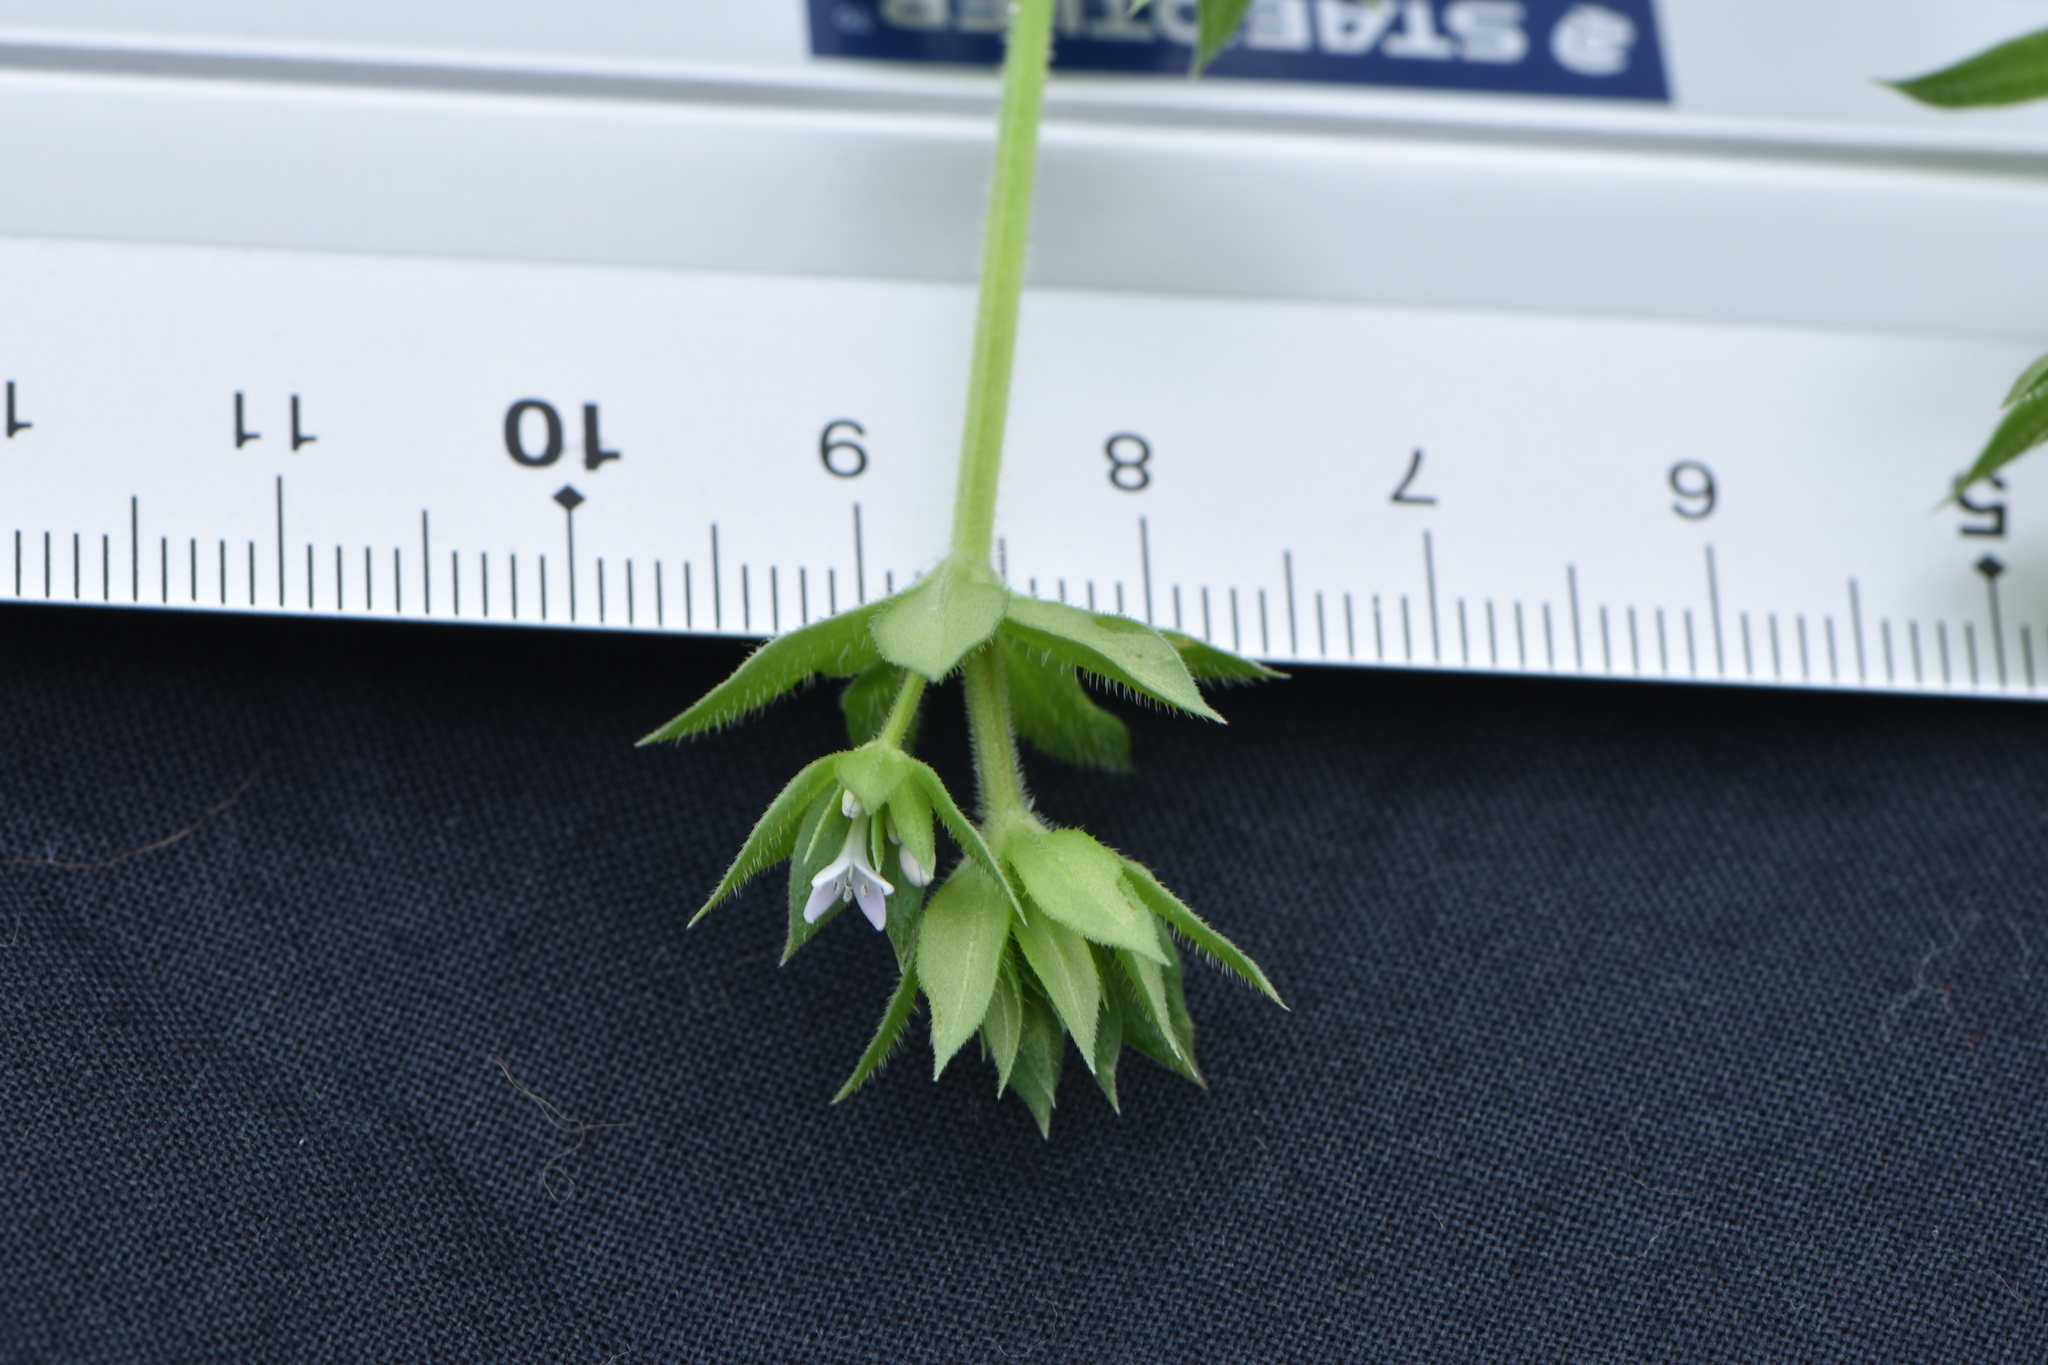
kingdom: Plantae
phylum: Tracheophyta
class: Magnoliopsida
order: Gentianales
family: Rubiaceae
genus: Sherardia
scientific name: Sherardia arvensis
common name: Field madder
